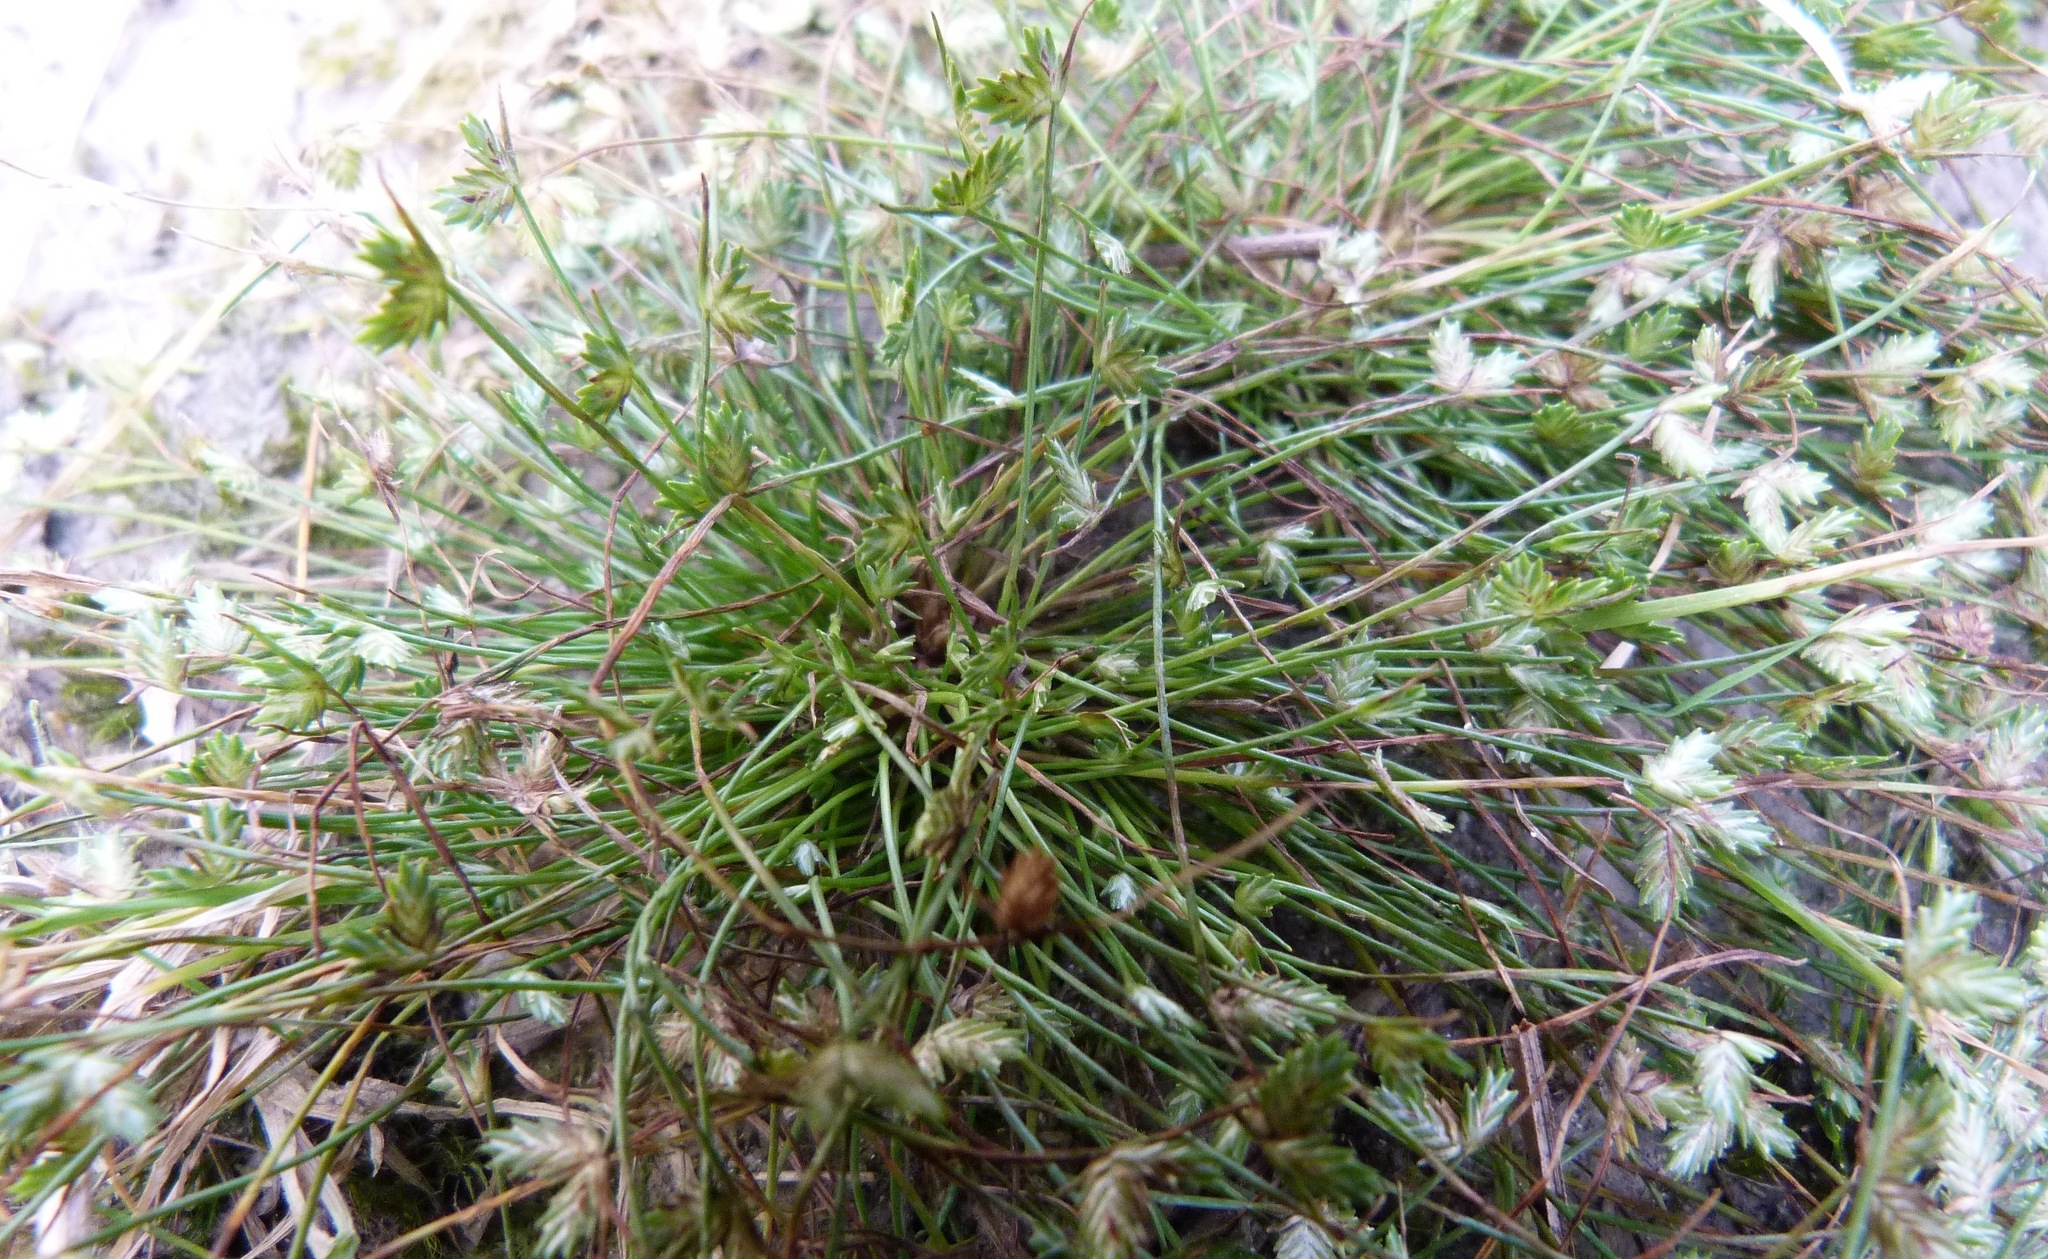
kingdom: Plantae
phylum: Tracheophyta
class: Liliopsida
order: Poales
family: Cyperaceae
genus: Isolepis
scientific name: Isolepis levynsiana
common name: Sedge
